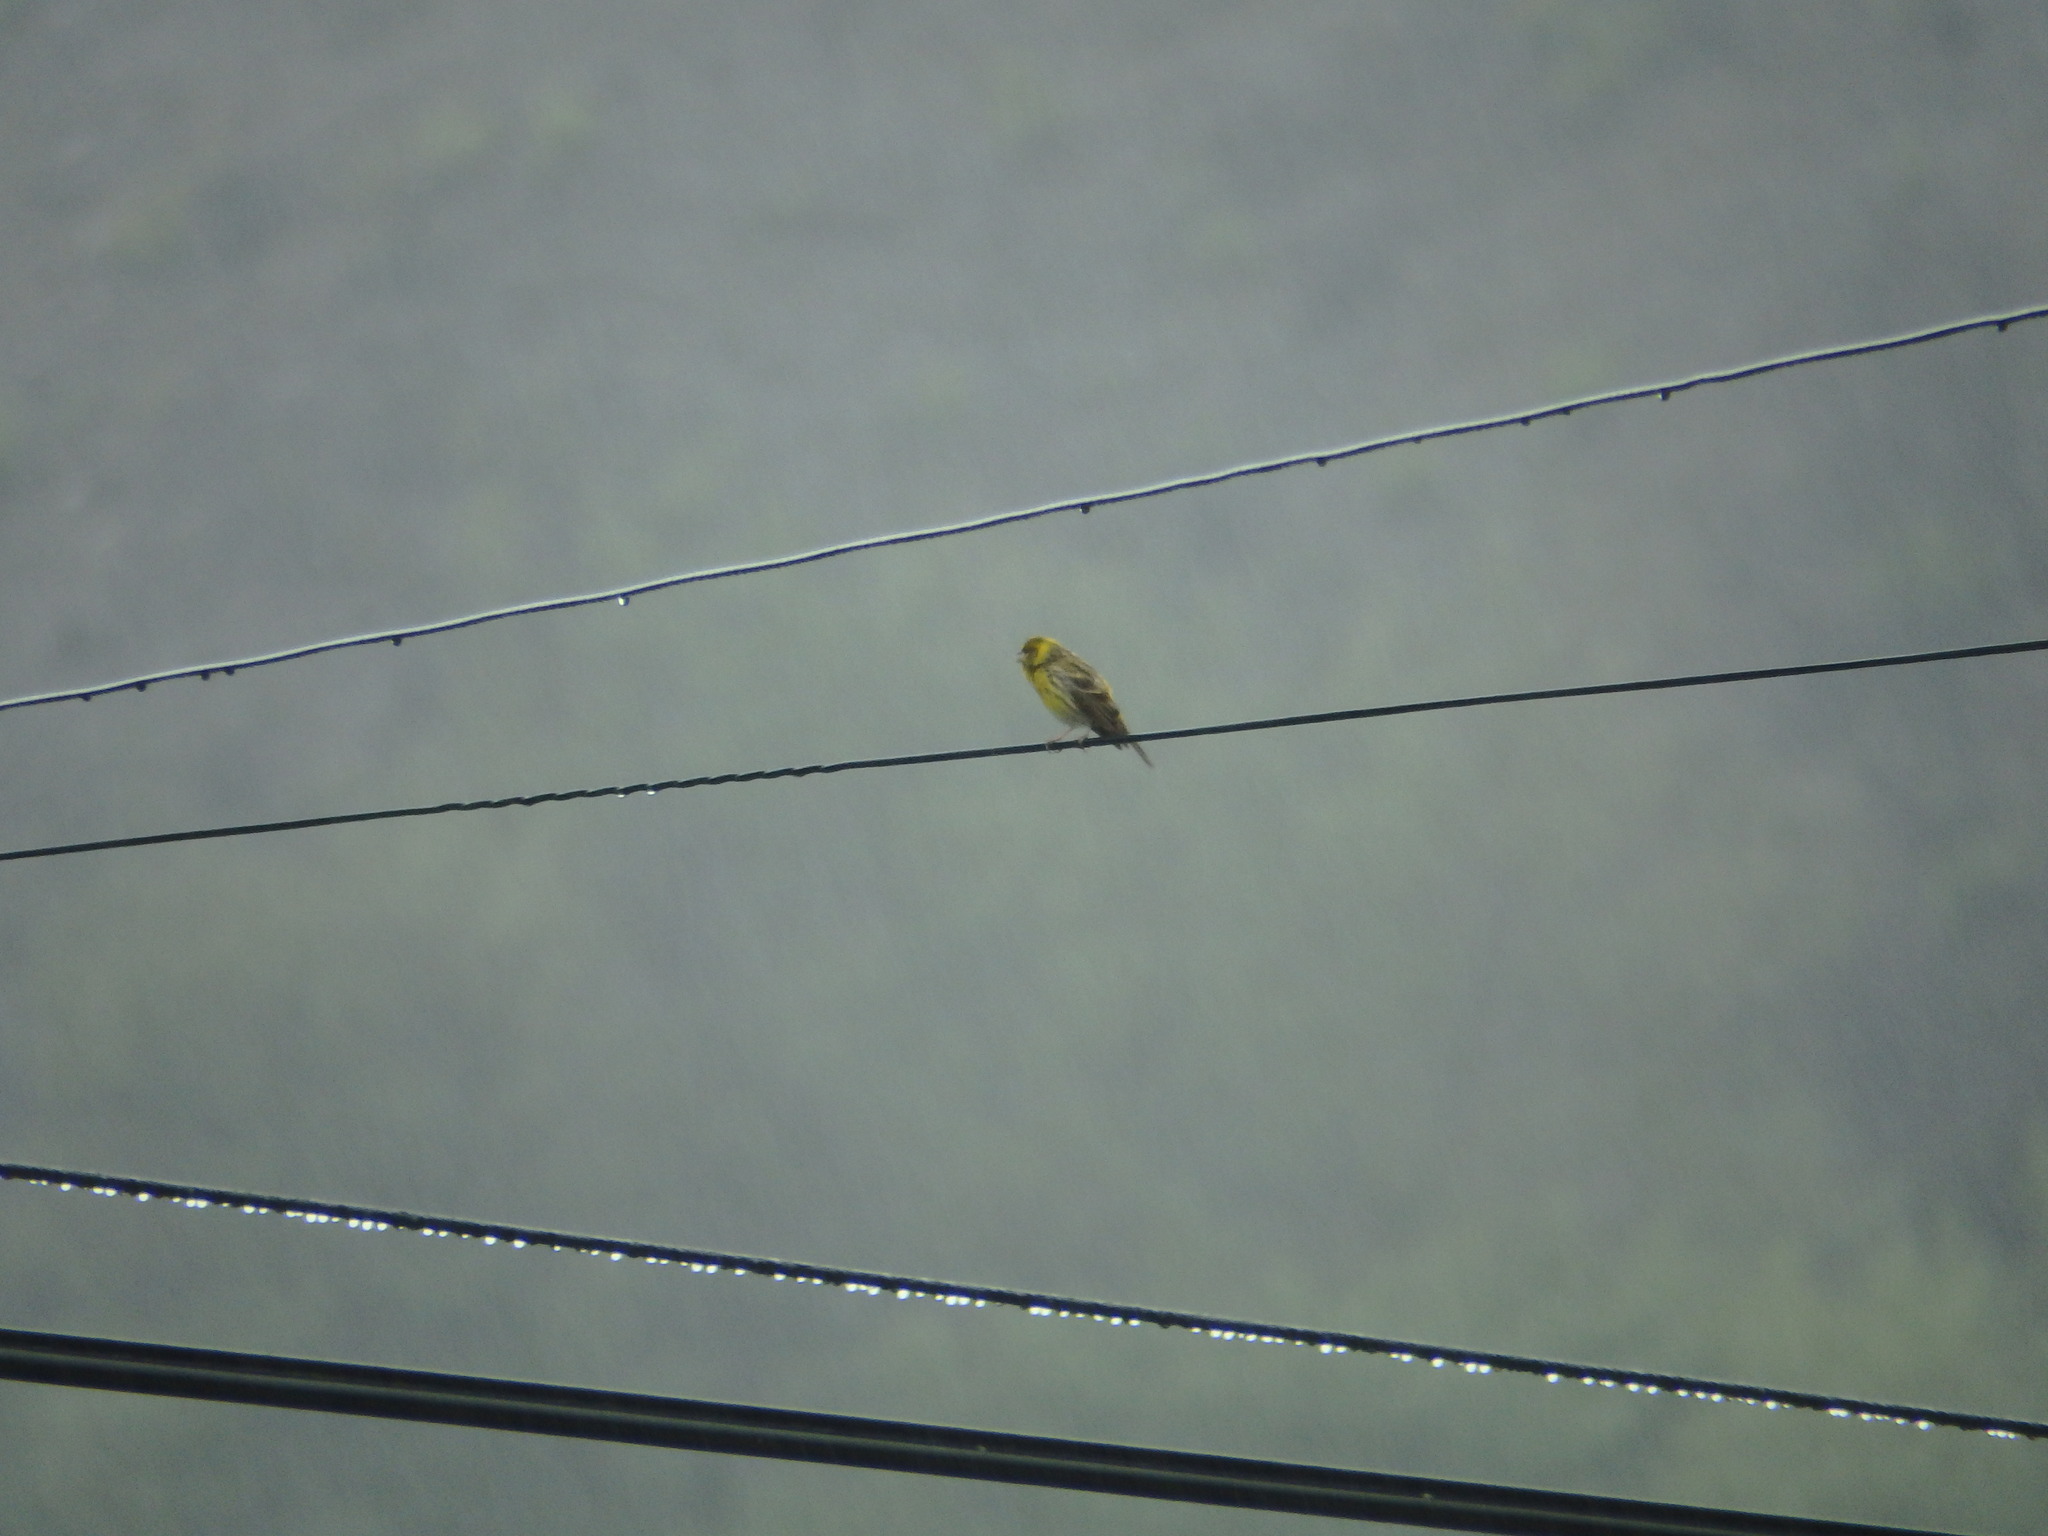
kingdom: Animalia
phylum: Chordata
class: Aves
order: Passeriformes
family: Fringillidae
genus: Serinus
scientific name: Serinus serinus
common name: European serin
